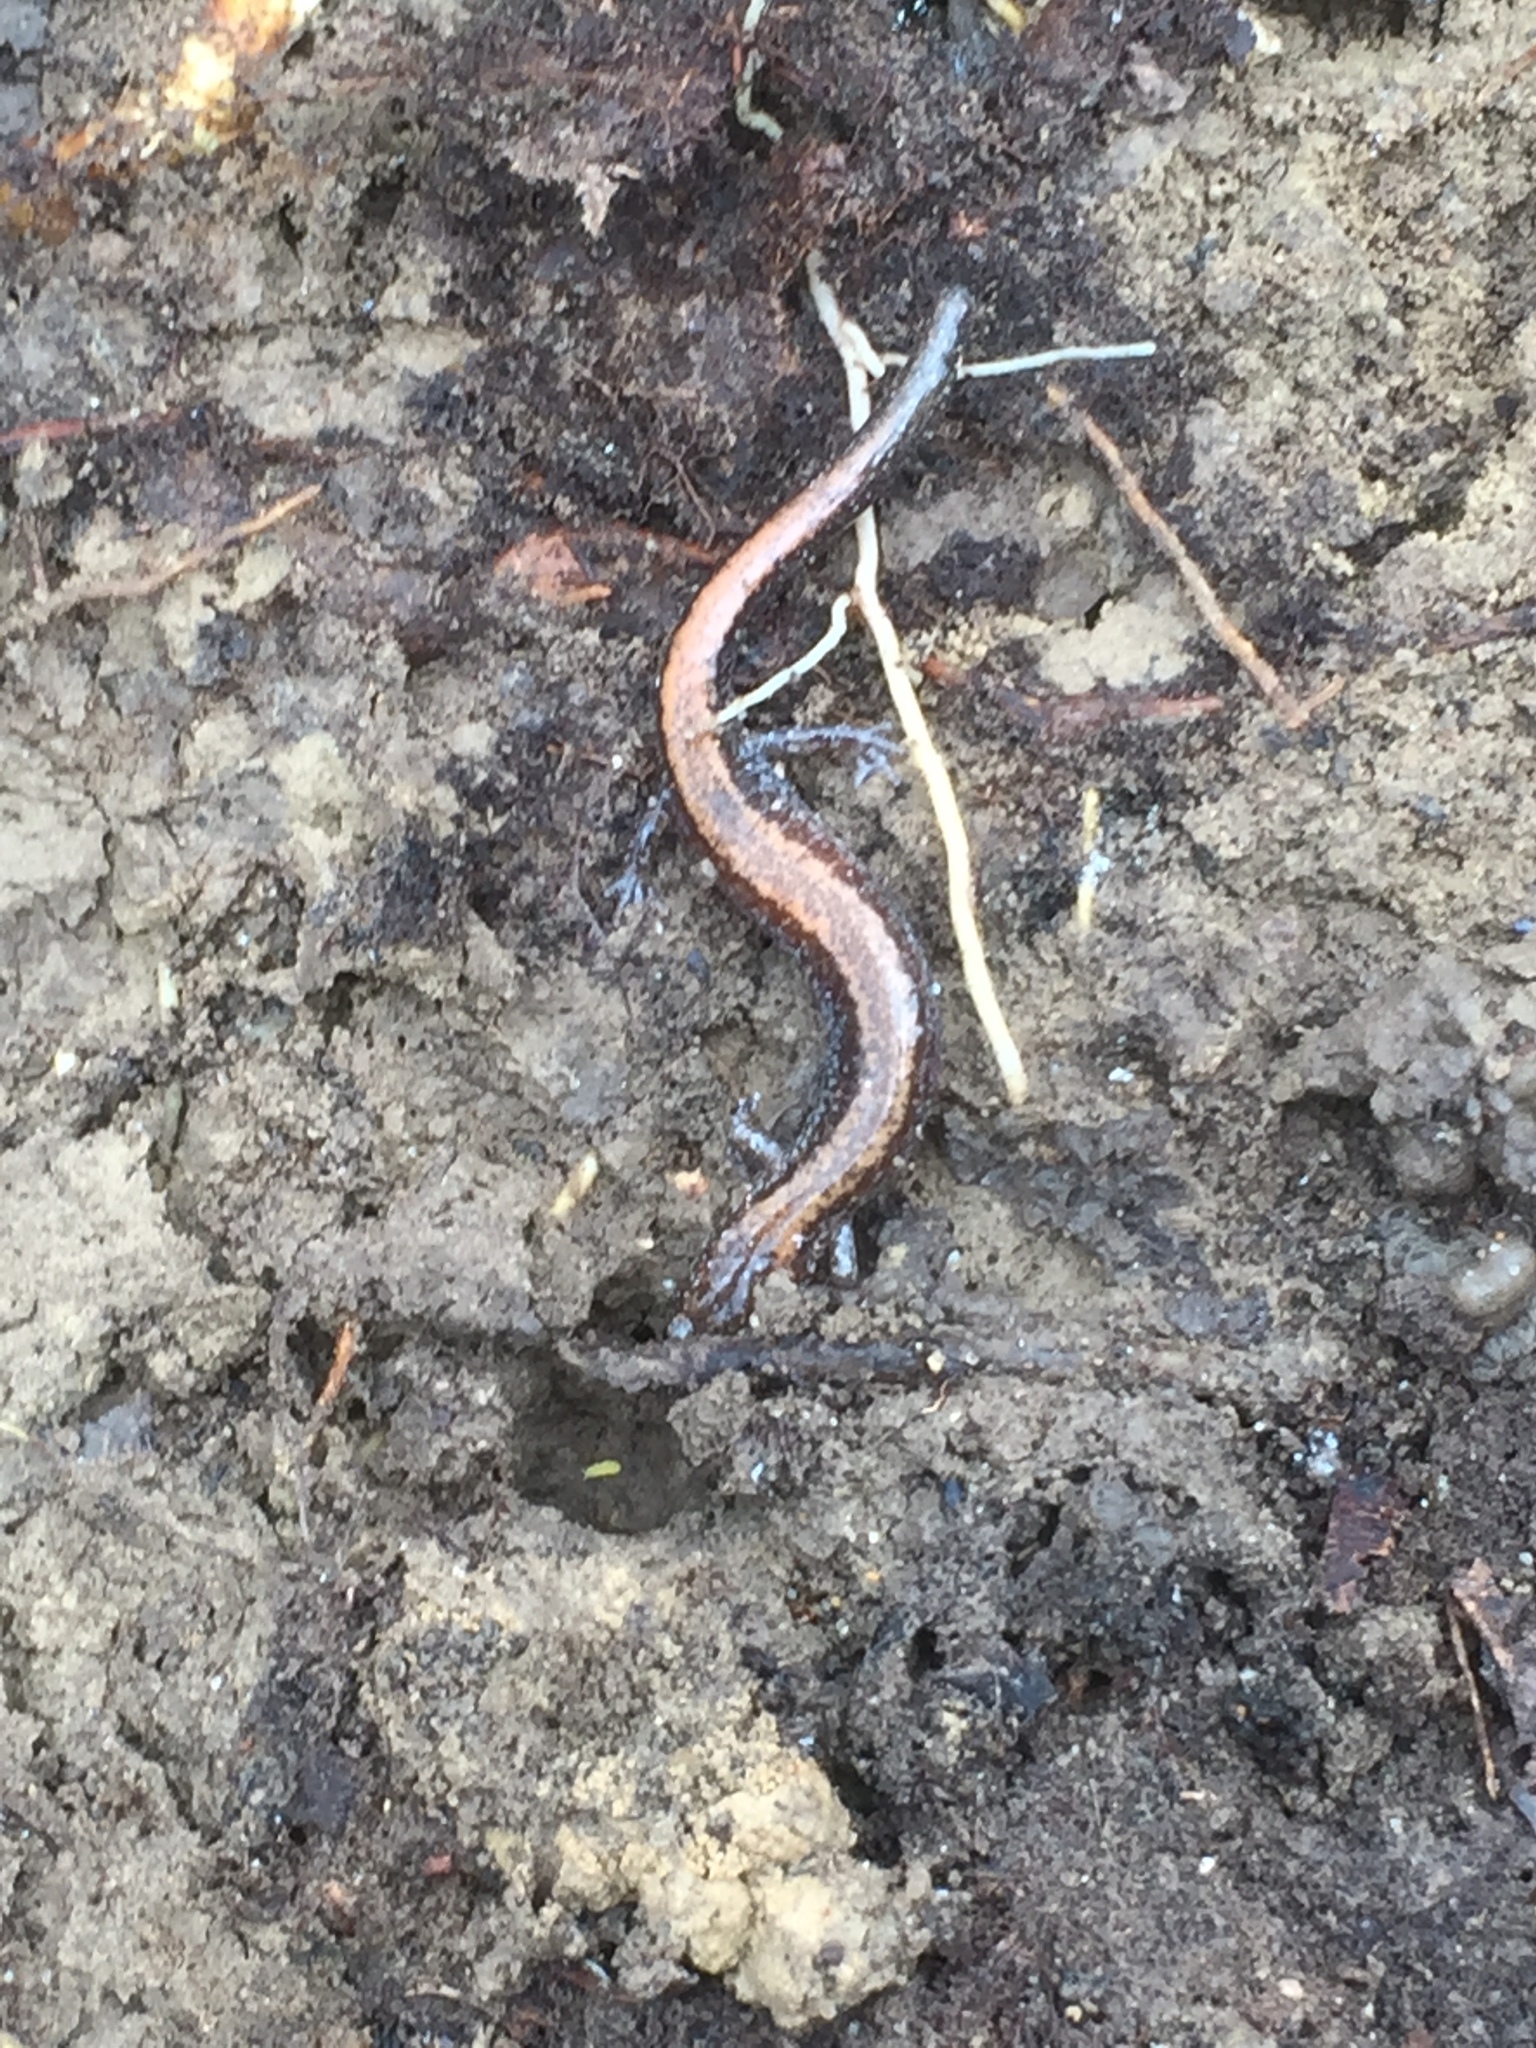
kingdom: Animalia
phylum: Chordata
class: Amphibia
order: Caudata
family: Plethodontidae
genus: Plethodon
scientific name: Plethodon cinereus
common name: Redback salamander
